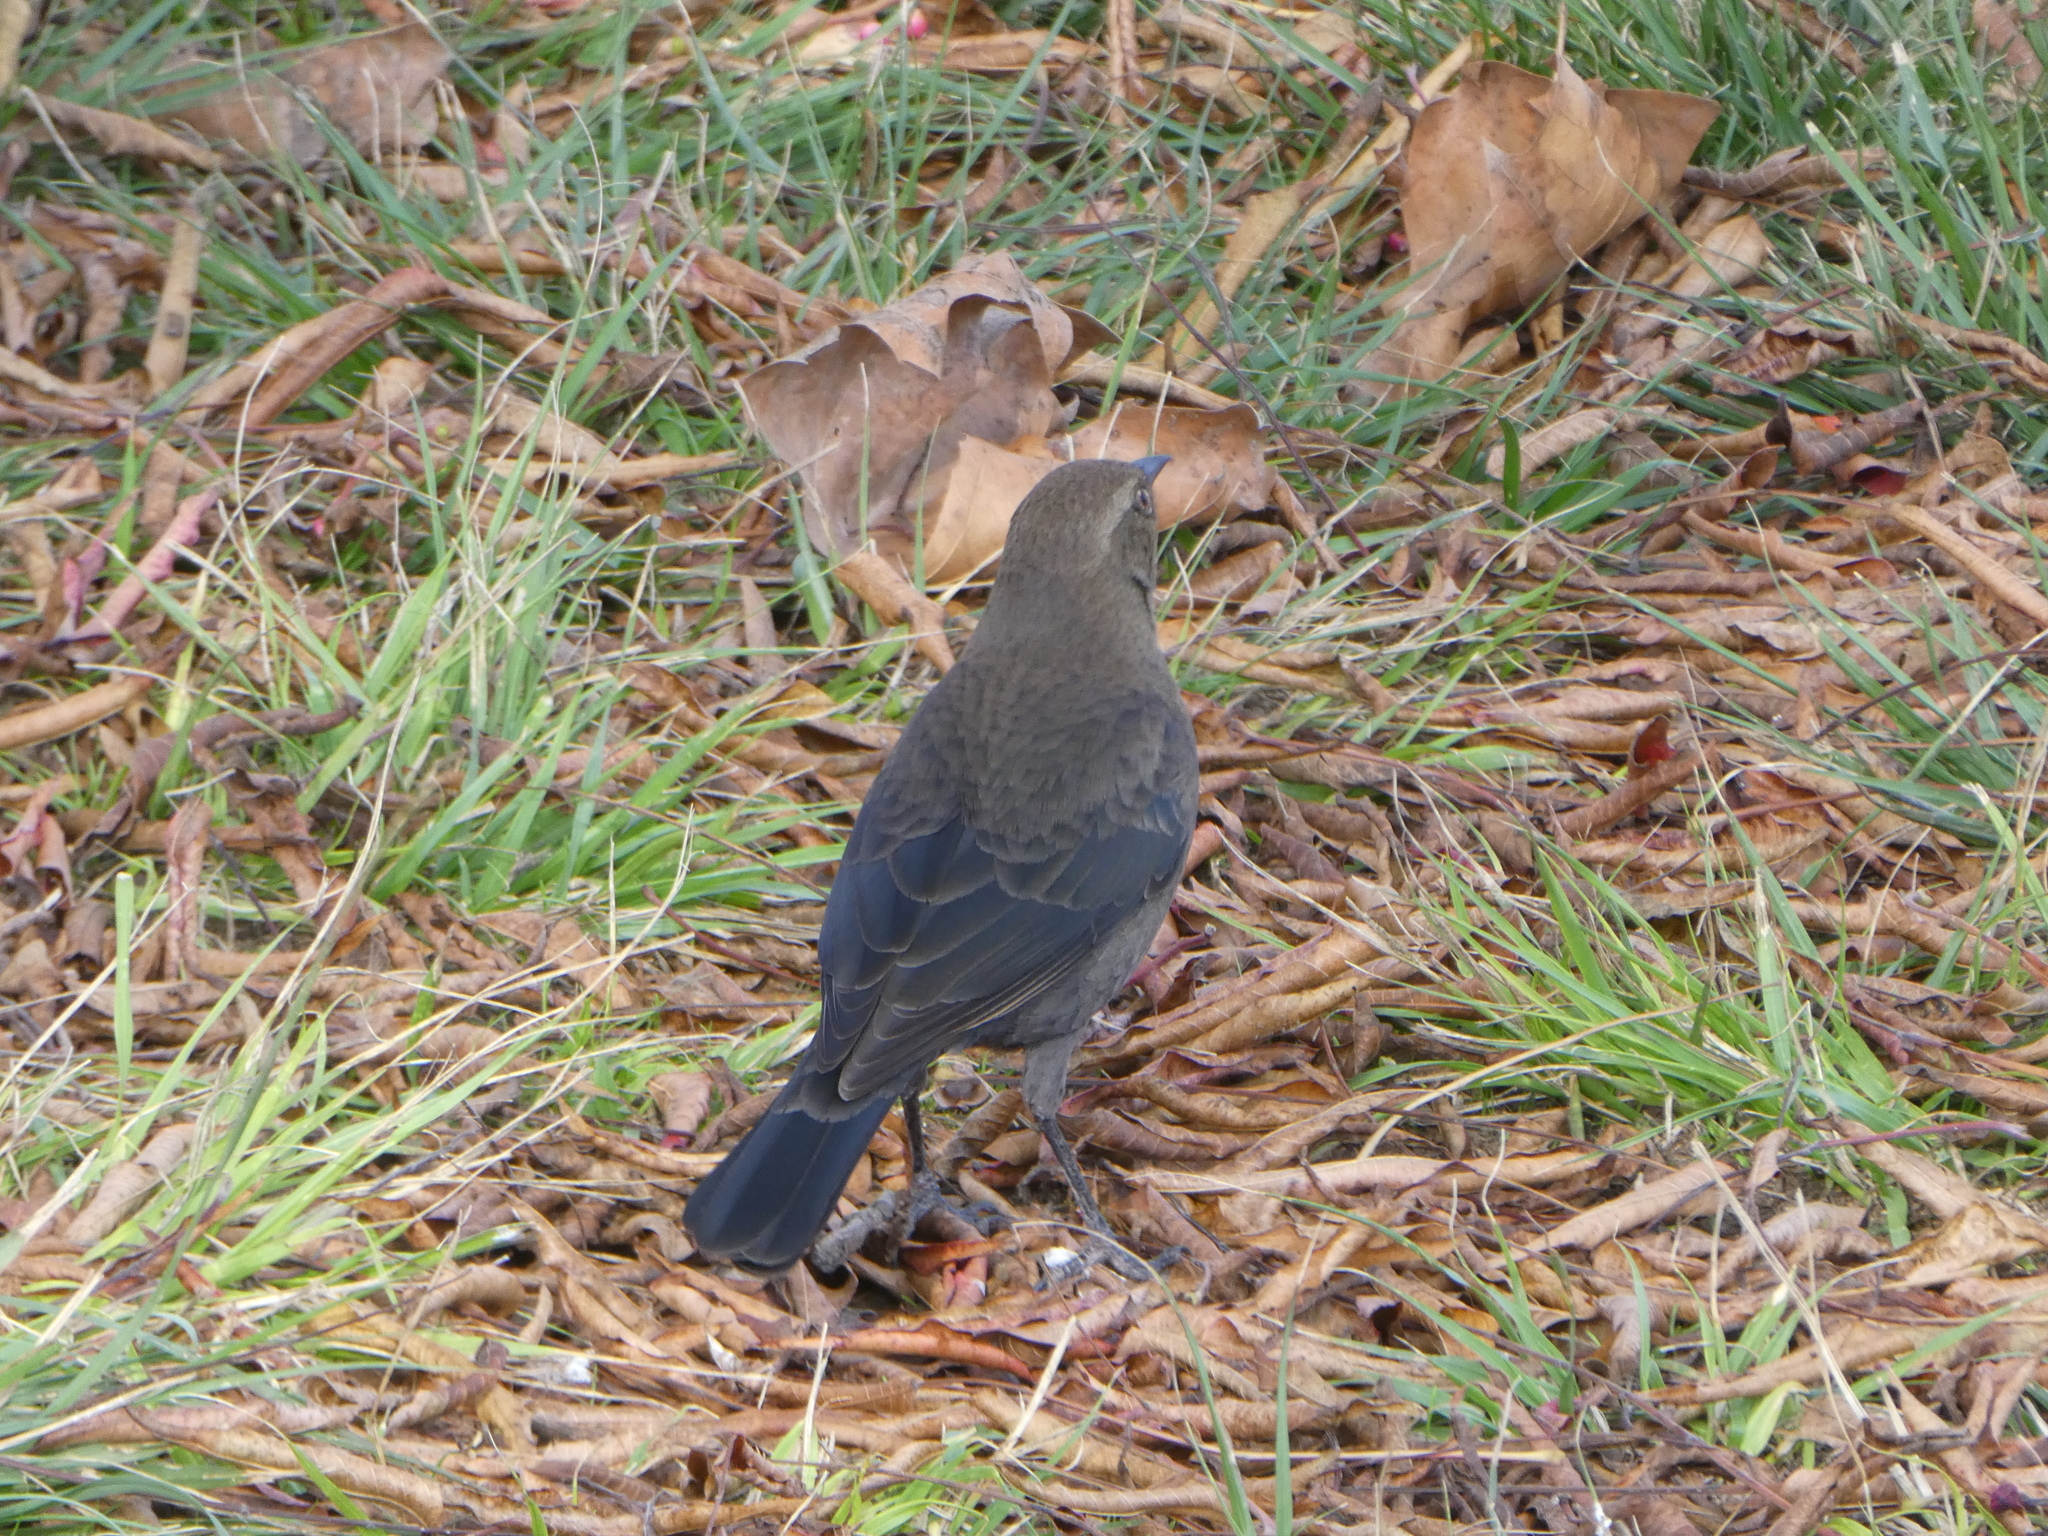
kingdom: Animalia
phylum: Chordata
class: Aves
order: Passeriformes
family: Icteridae
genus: Euphagus
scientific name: Euphagus cyanocephalus
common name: Brewer's blackbird
